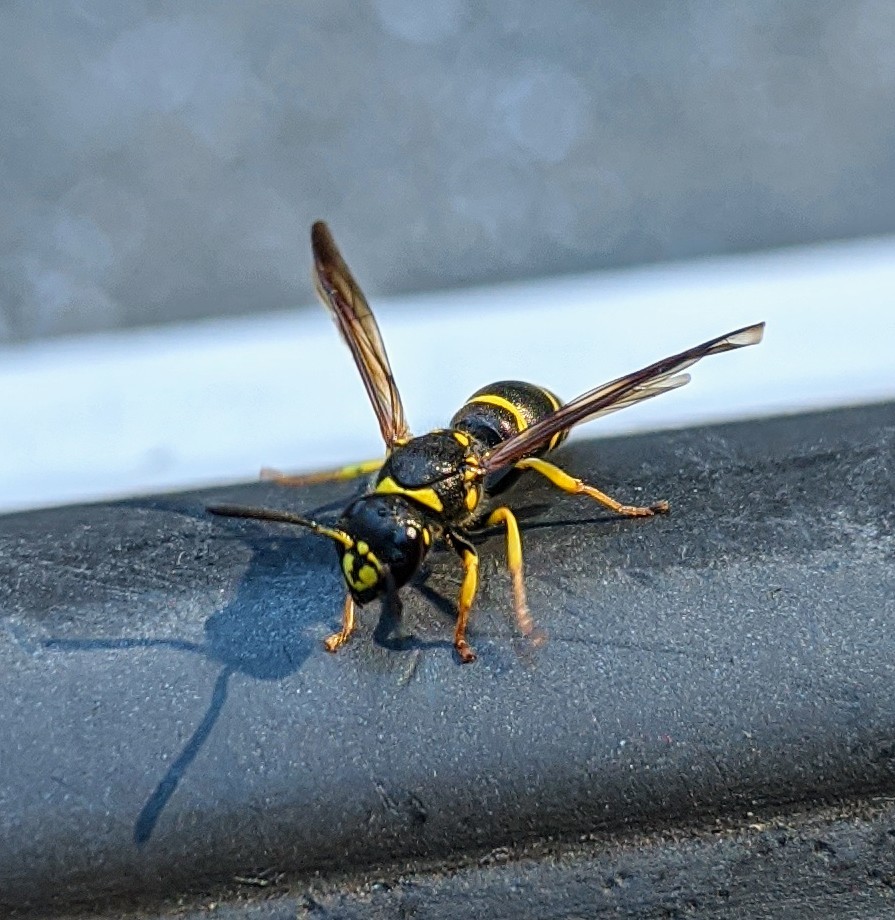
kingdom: Animalia
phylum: Arthropoda
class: Insecta
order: Hymenoptera
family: Vespidae
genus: Ancistrocerus
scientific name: Ancistrocerus
